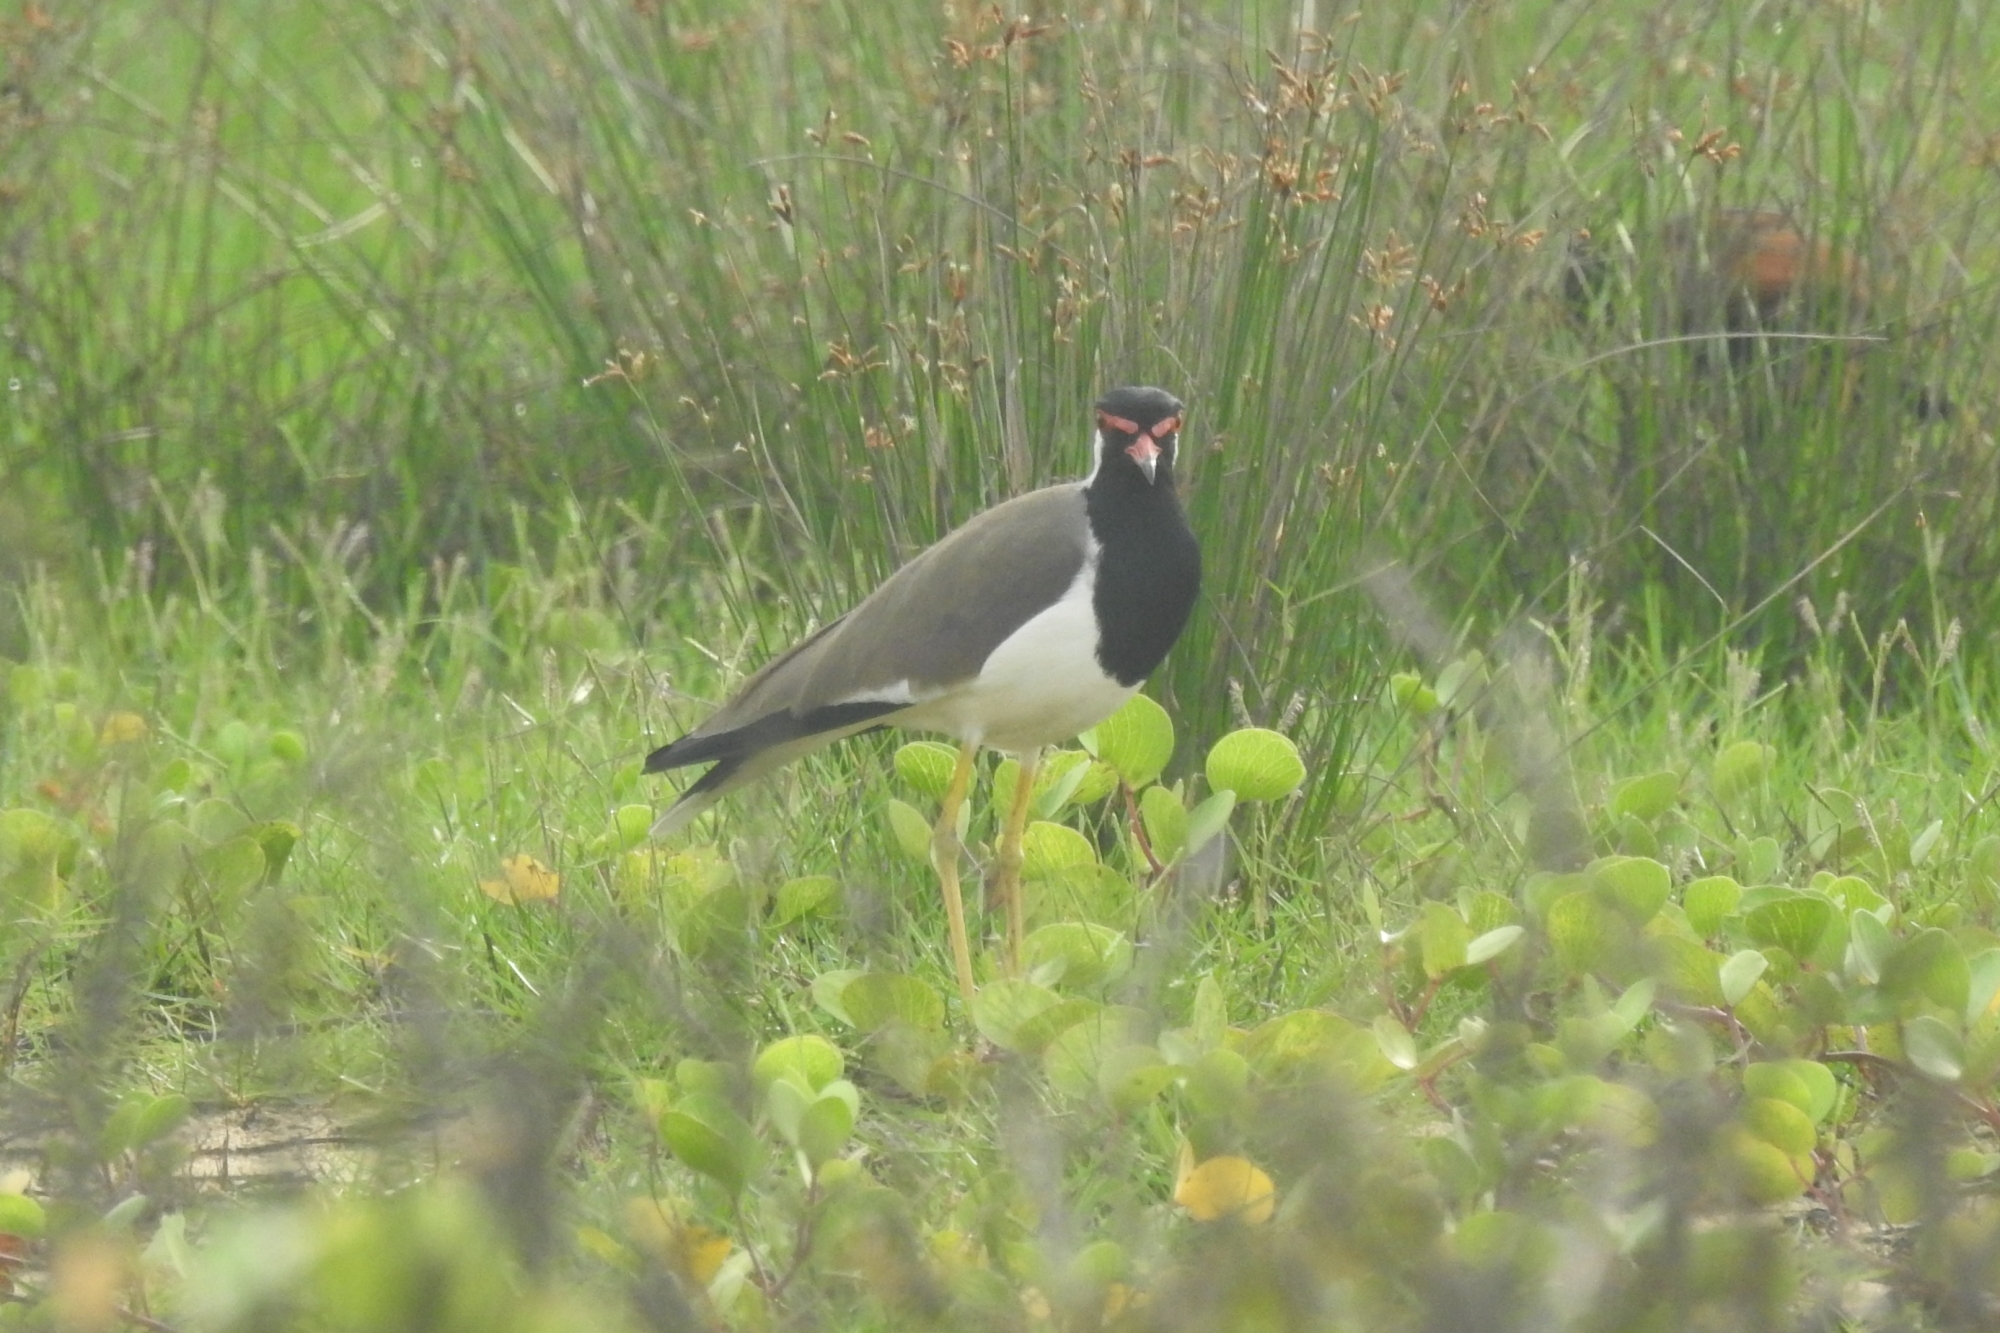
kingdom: Animalia
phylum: Chordata
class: Aves
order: Charadriiformes
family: Charadriidae
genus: Vanellus
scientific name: Vanellus indicus
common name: Red-wattled lapwing
